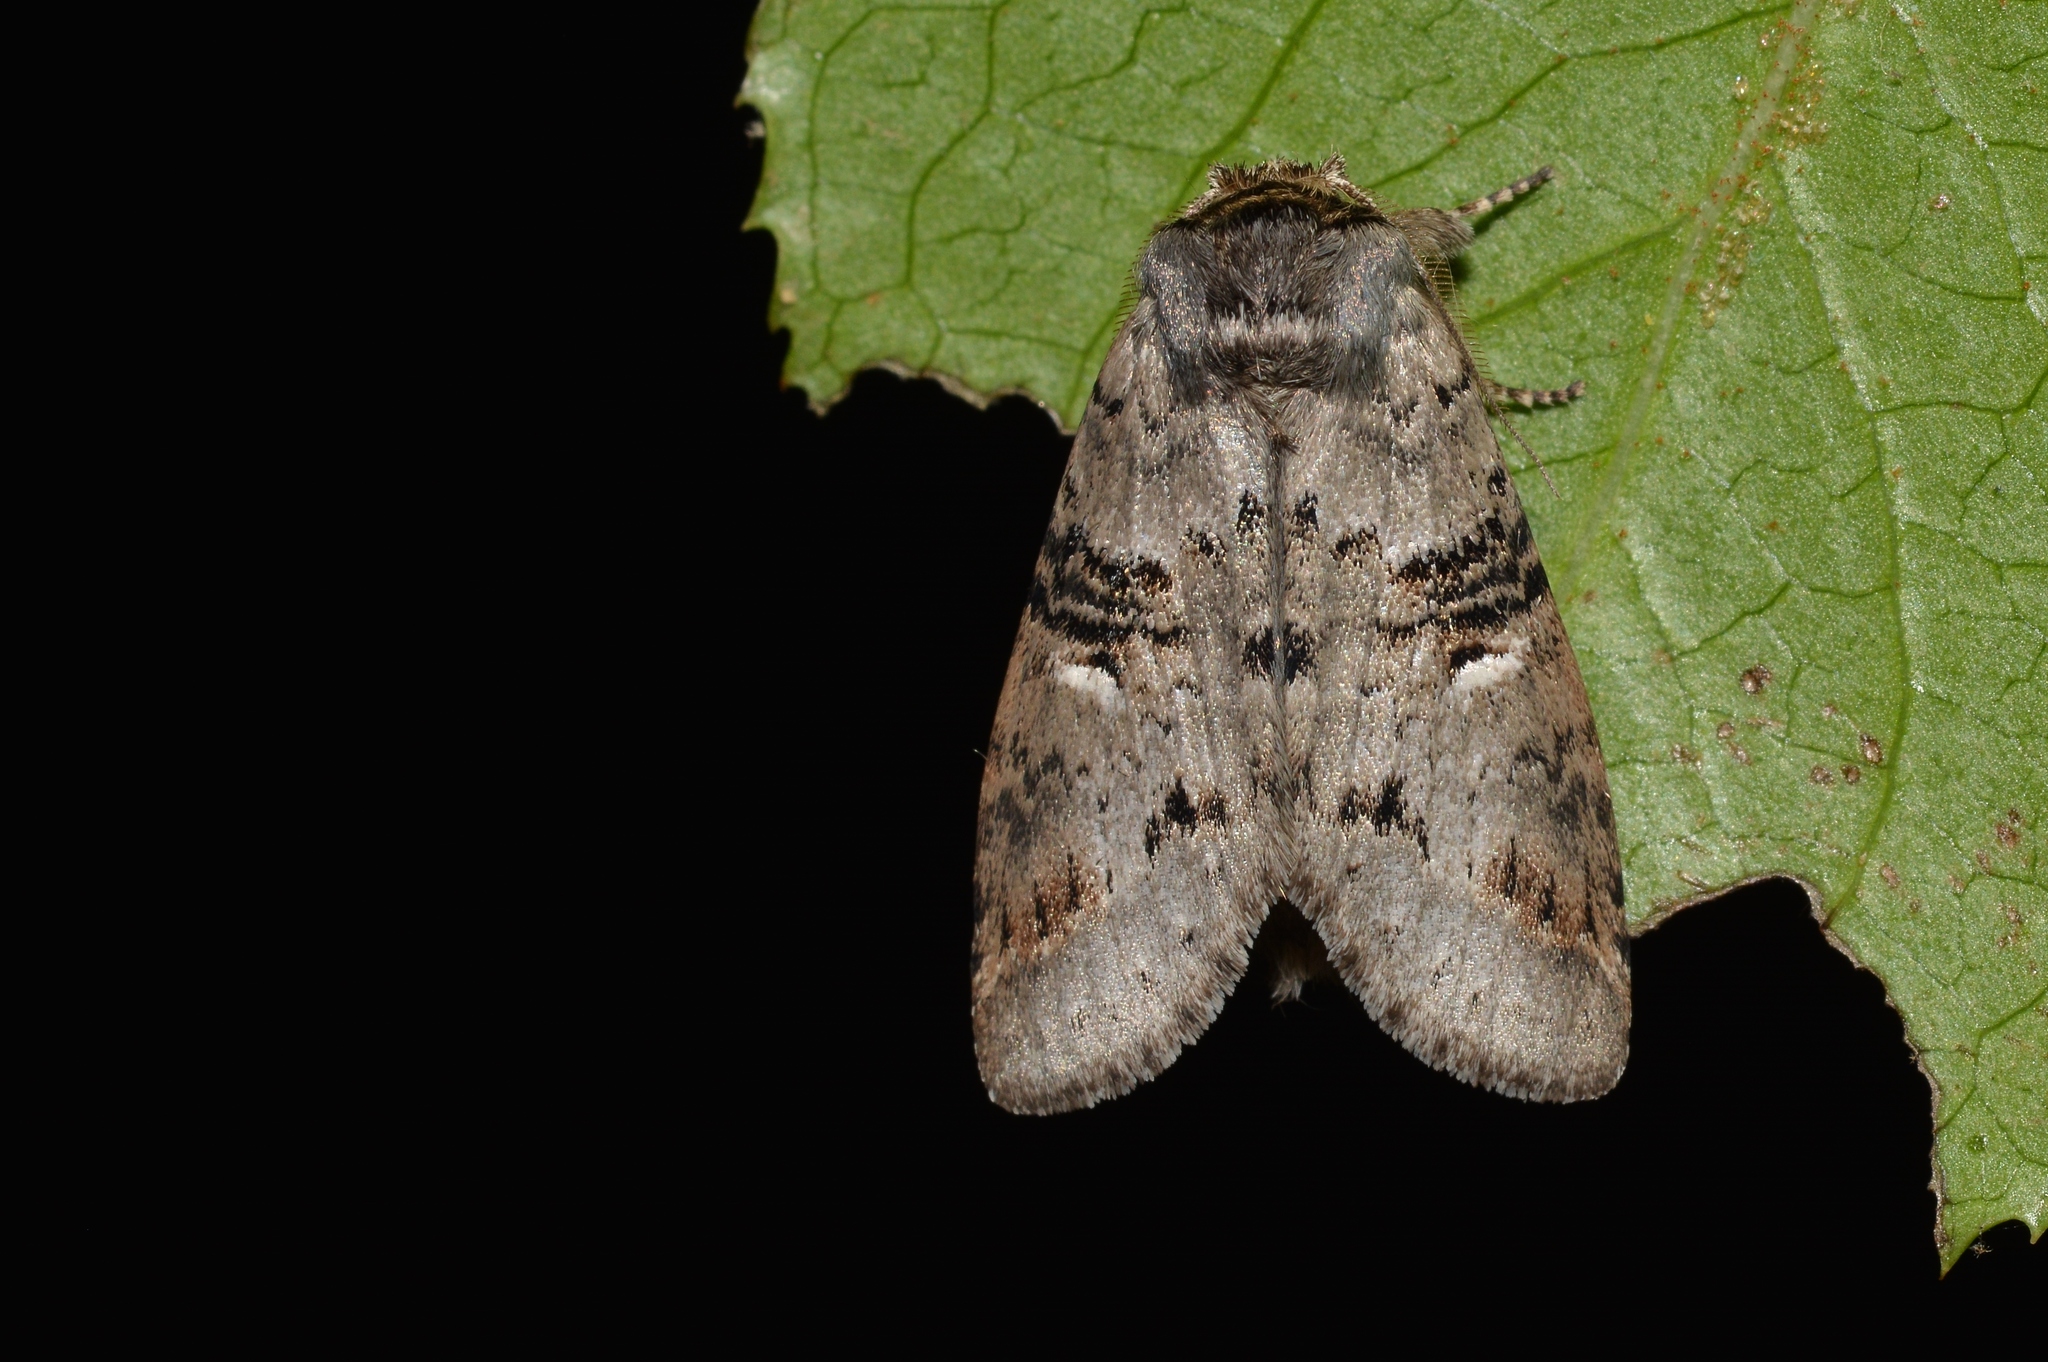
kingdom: Animalia
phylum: Arthropoda
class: Insecta
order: Lepidoptera
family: Notodontidae
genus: Ellida
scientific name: Ellida caniplaga
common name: Linden prominent
